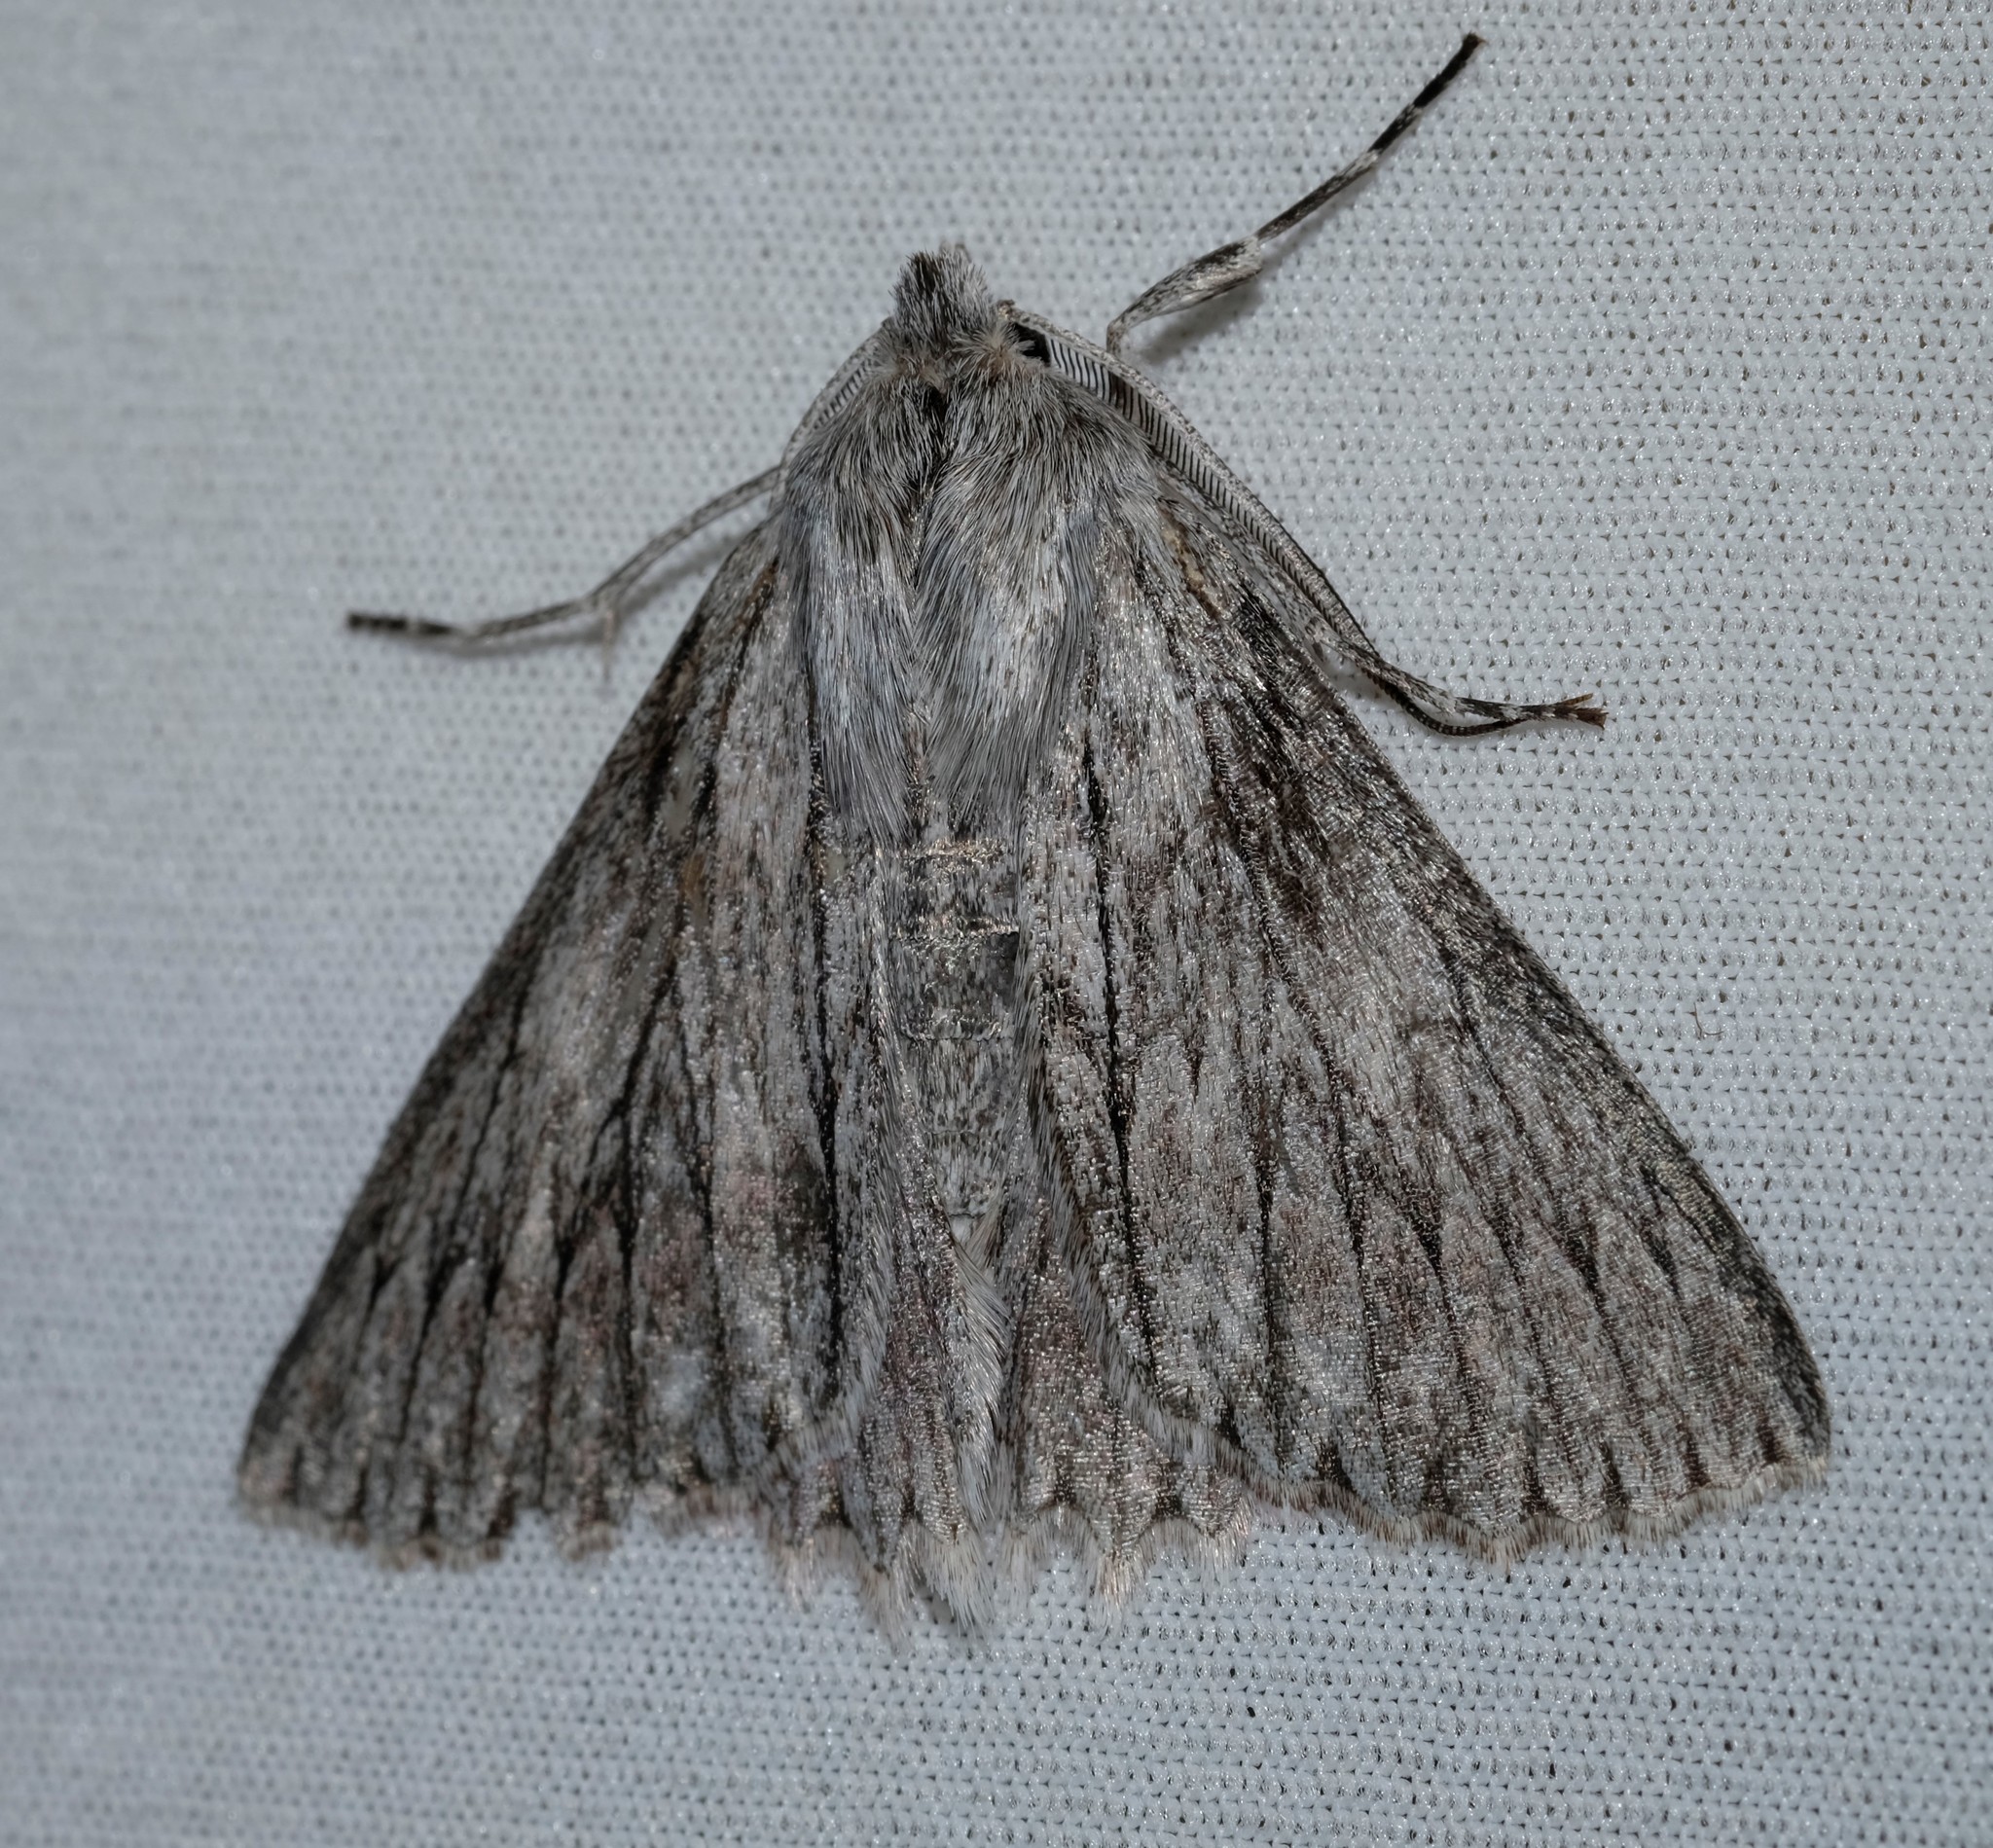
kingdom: Animalia
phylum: Arthropoda
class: Insecta
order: Lepidoptera
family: Geometridae
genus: Cyneoterpna
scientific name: Cyneoterpna wilsoni
